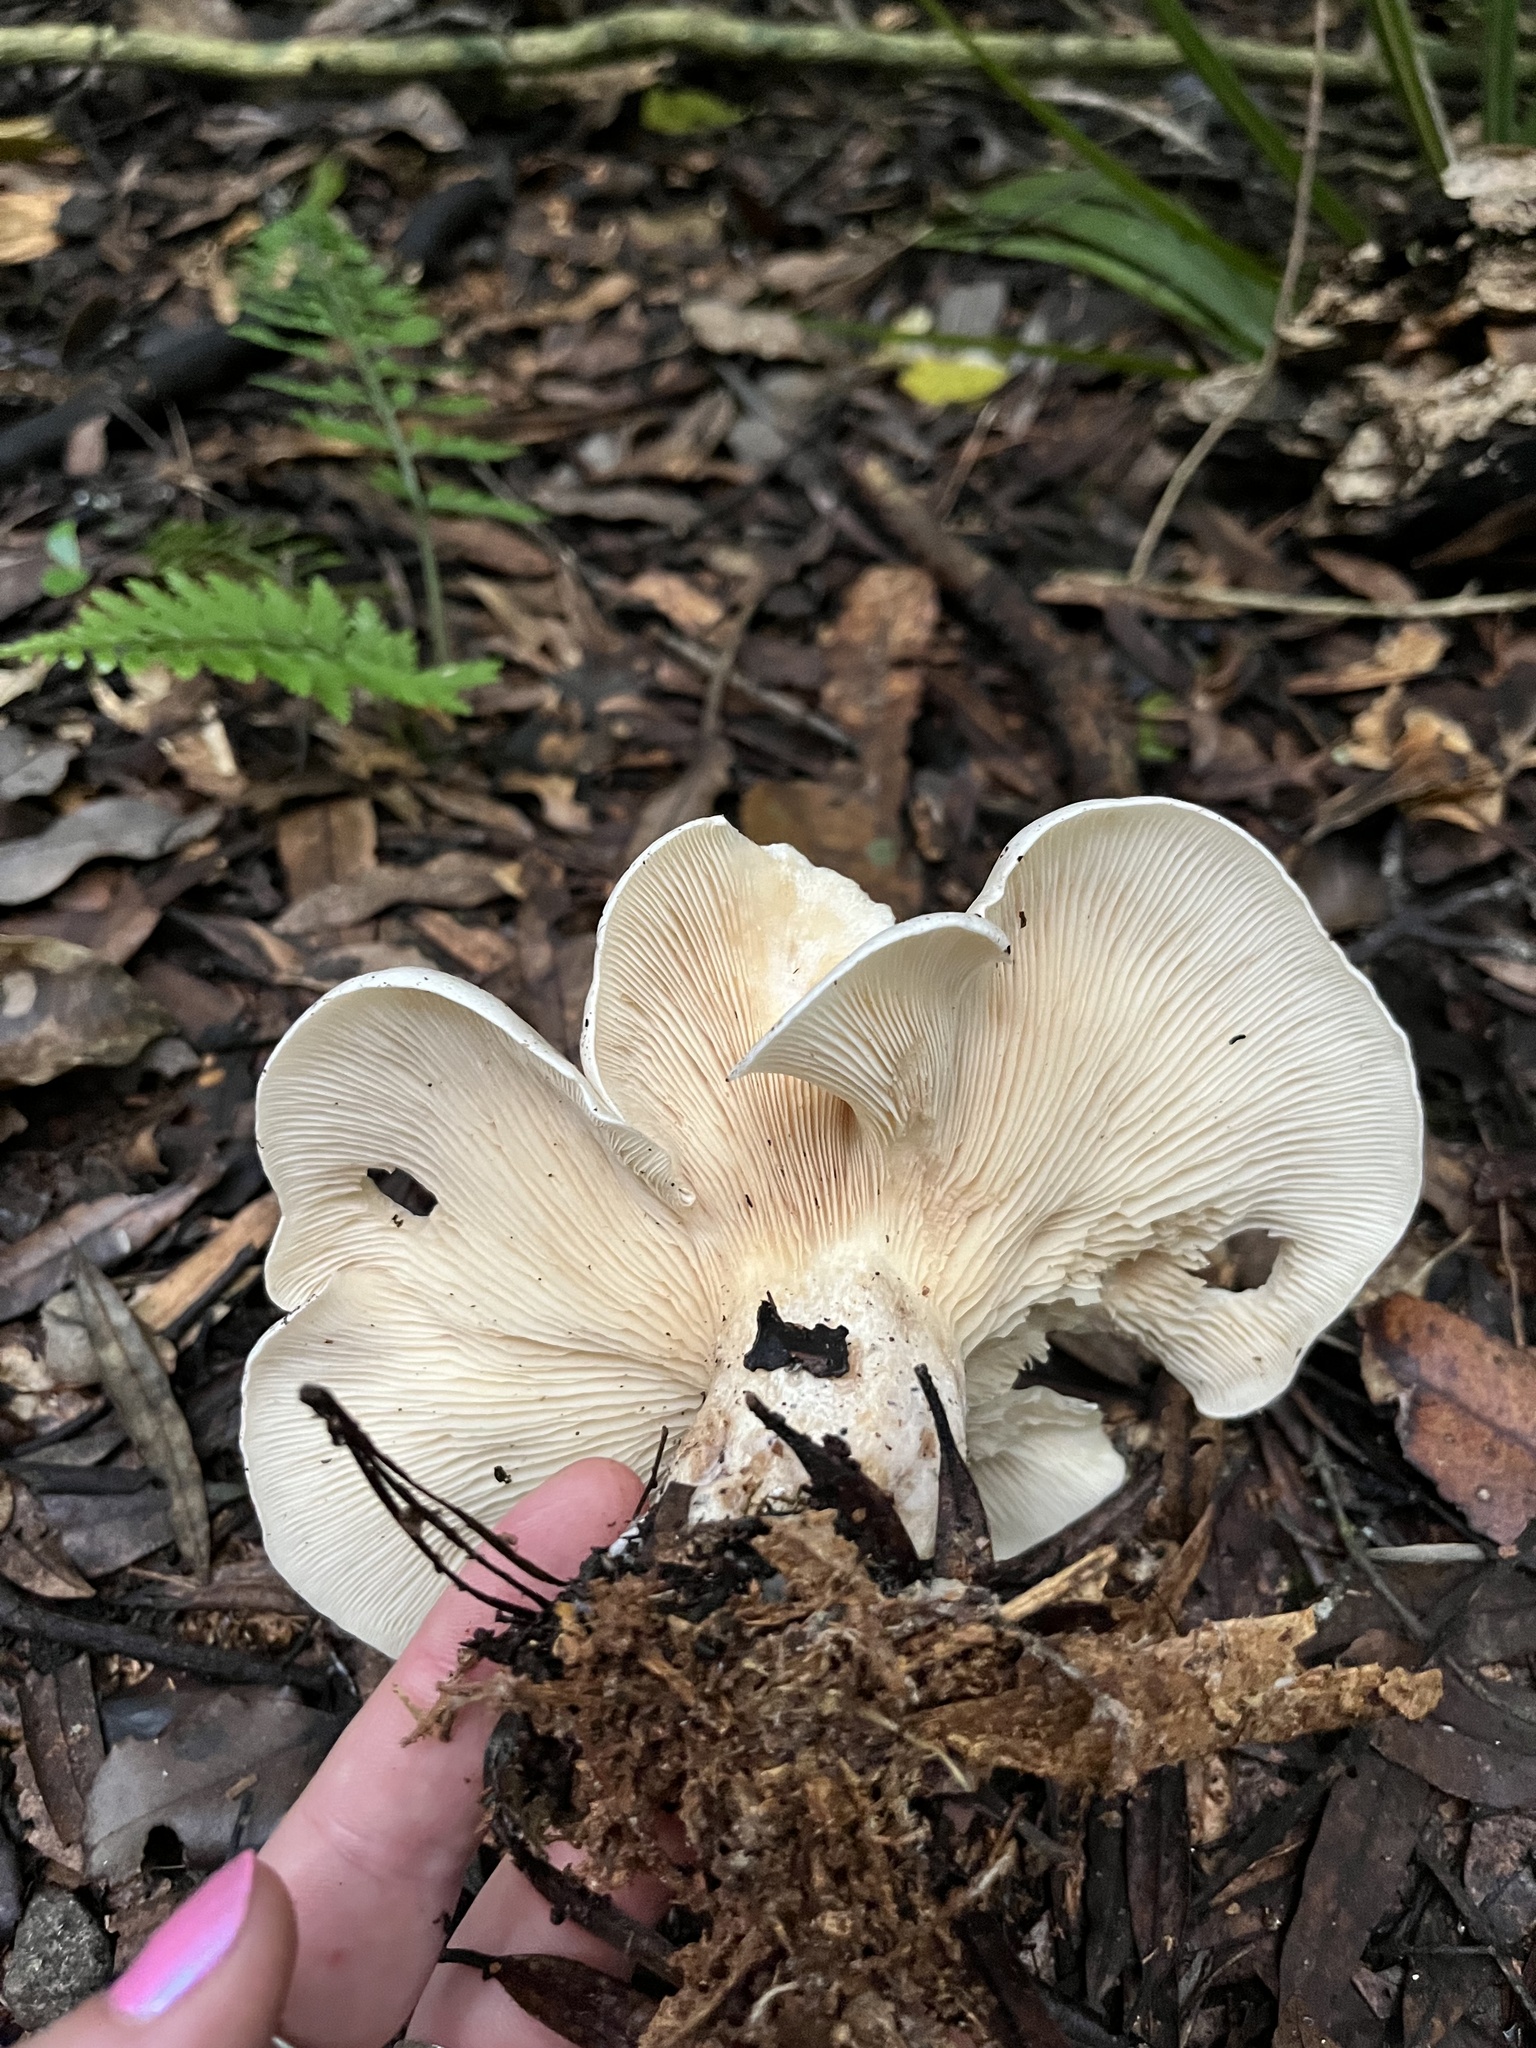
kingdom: Fungi
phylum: Basidiomycota
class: Agaricomycetes
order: Agaricales
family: Tricholomataceae
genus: Clitocybe
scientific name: Clitocybe nebularis
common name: Clouded agaric
